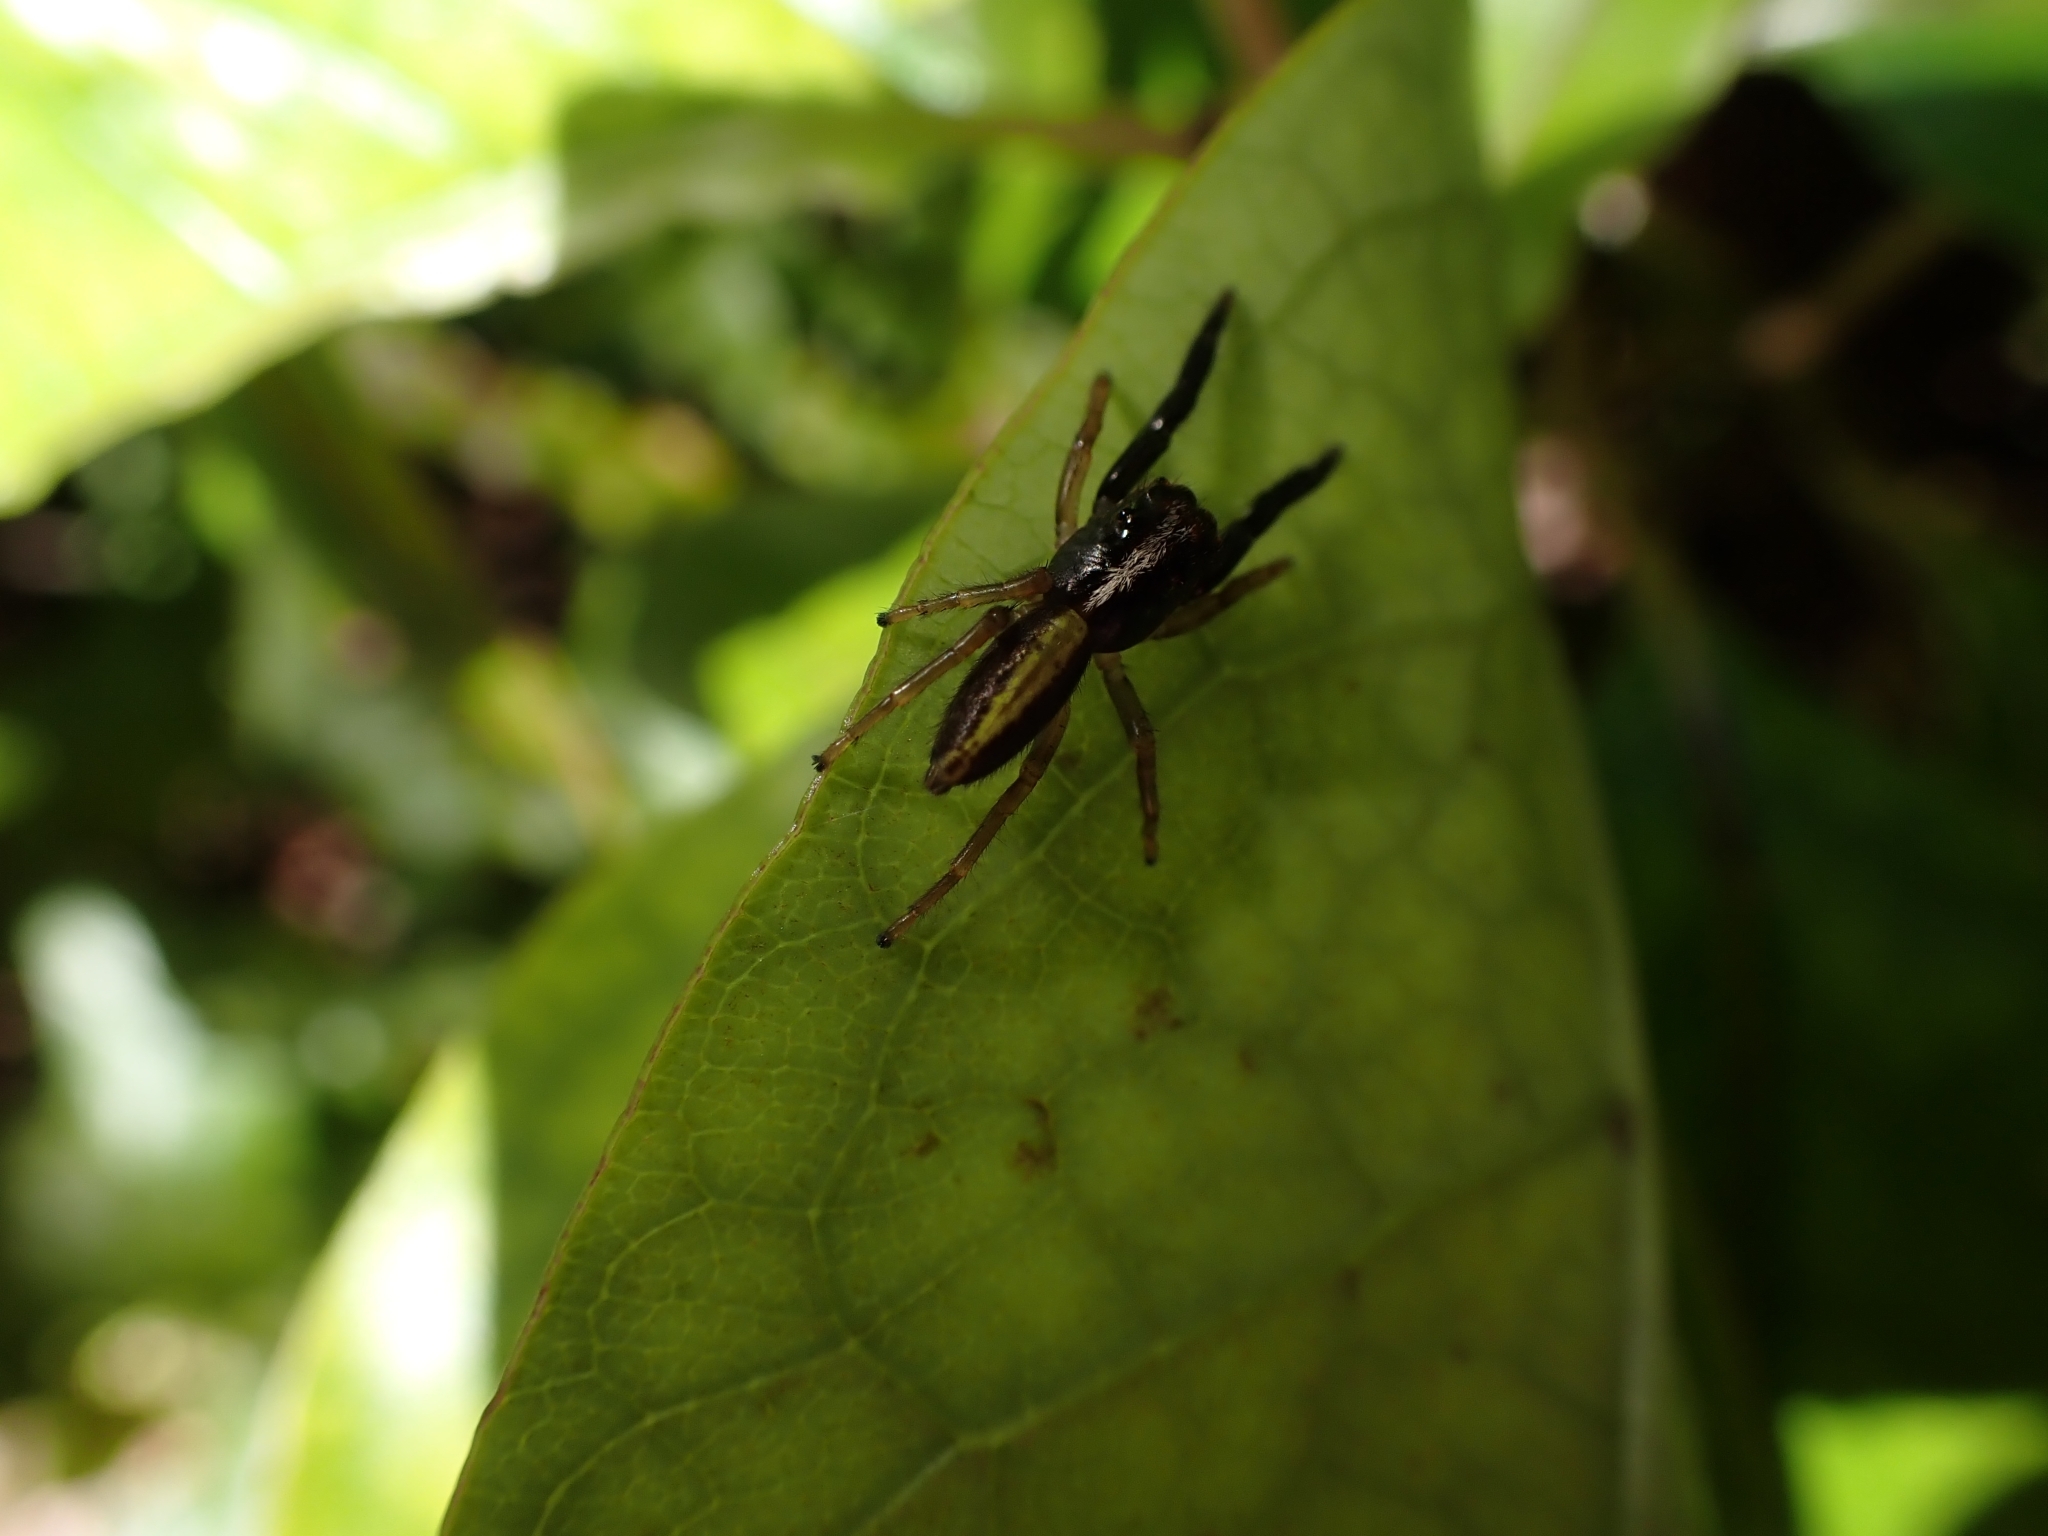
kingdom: Animalia
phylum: Arthropoda
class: Arachnida
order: Araneae
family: Salticidae
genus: Trite
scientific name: Trite planiceps
